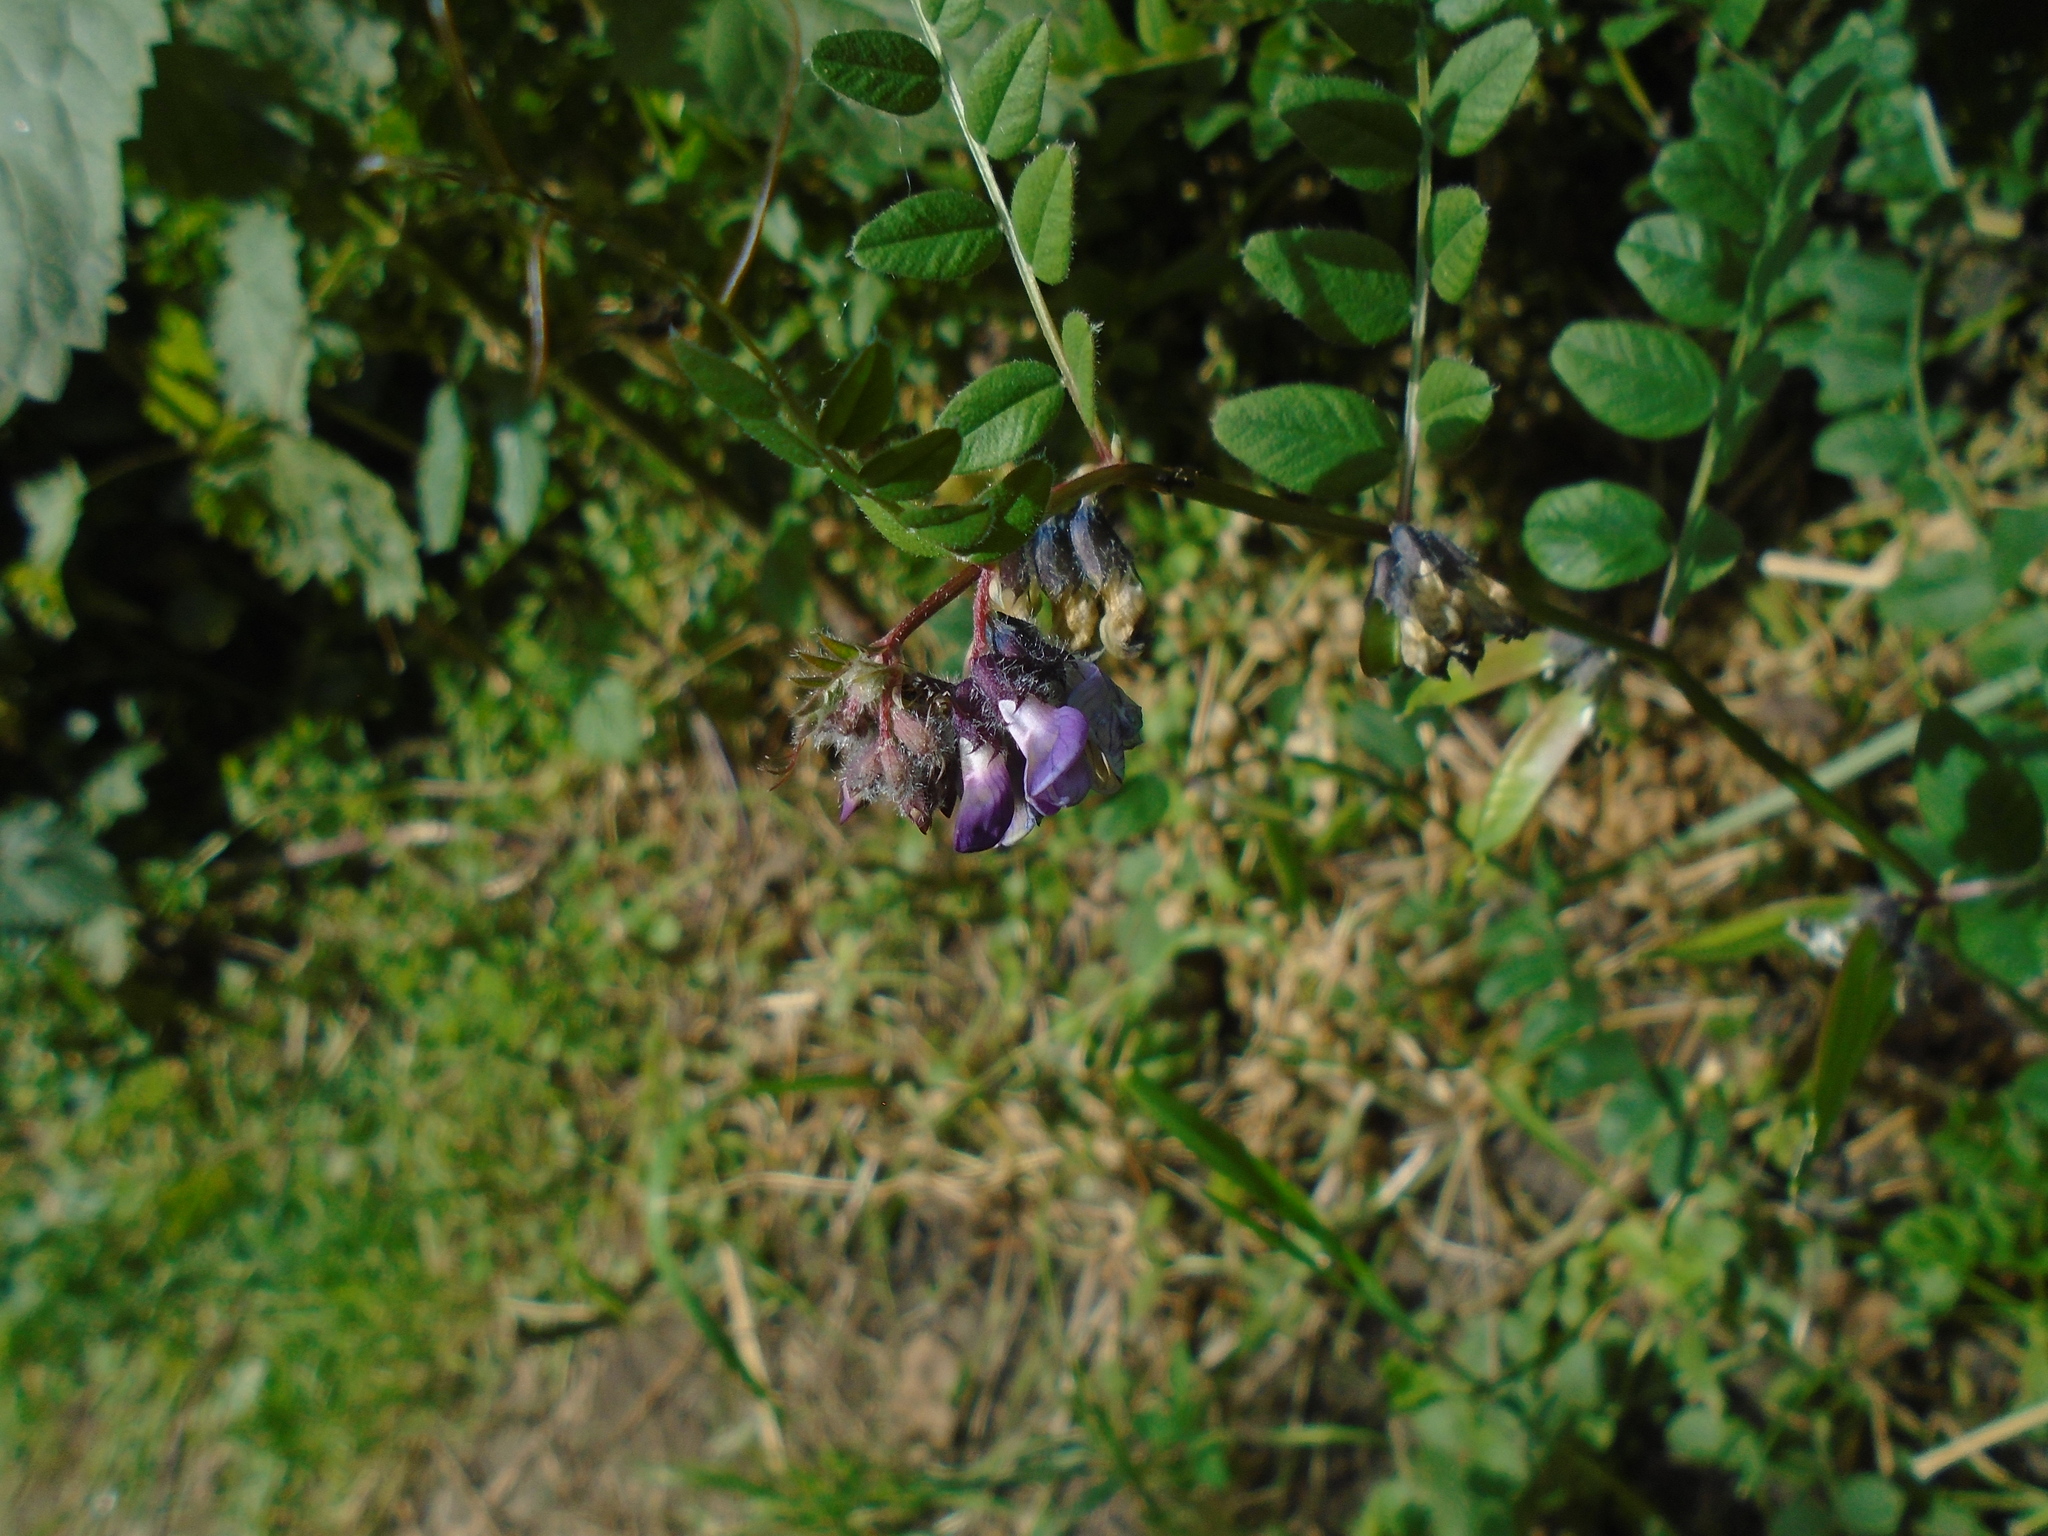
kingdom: Plantae
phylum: Tracheophyta
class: Magnoliopsida
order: Fabales
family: Fabaceae
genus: Vicia
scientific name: Vicia sepium
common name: Bush vetch
